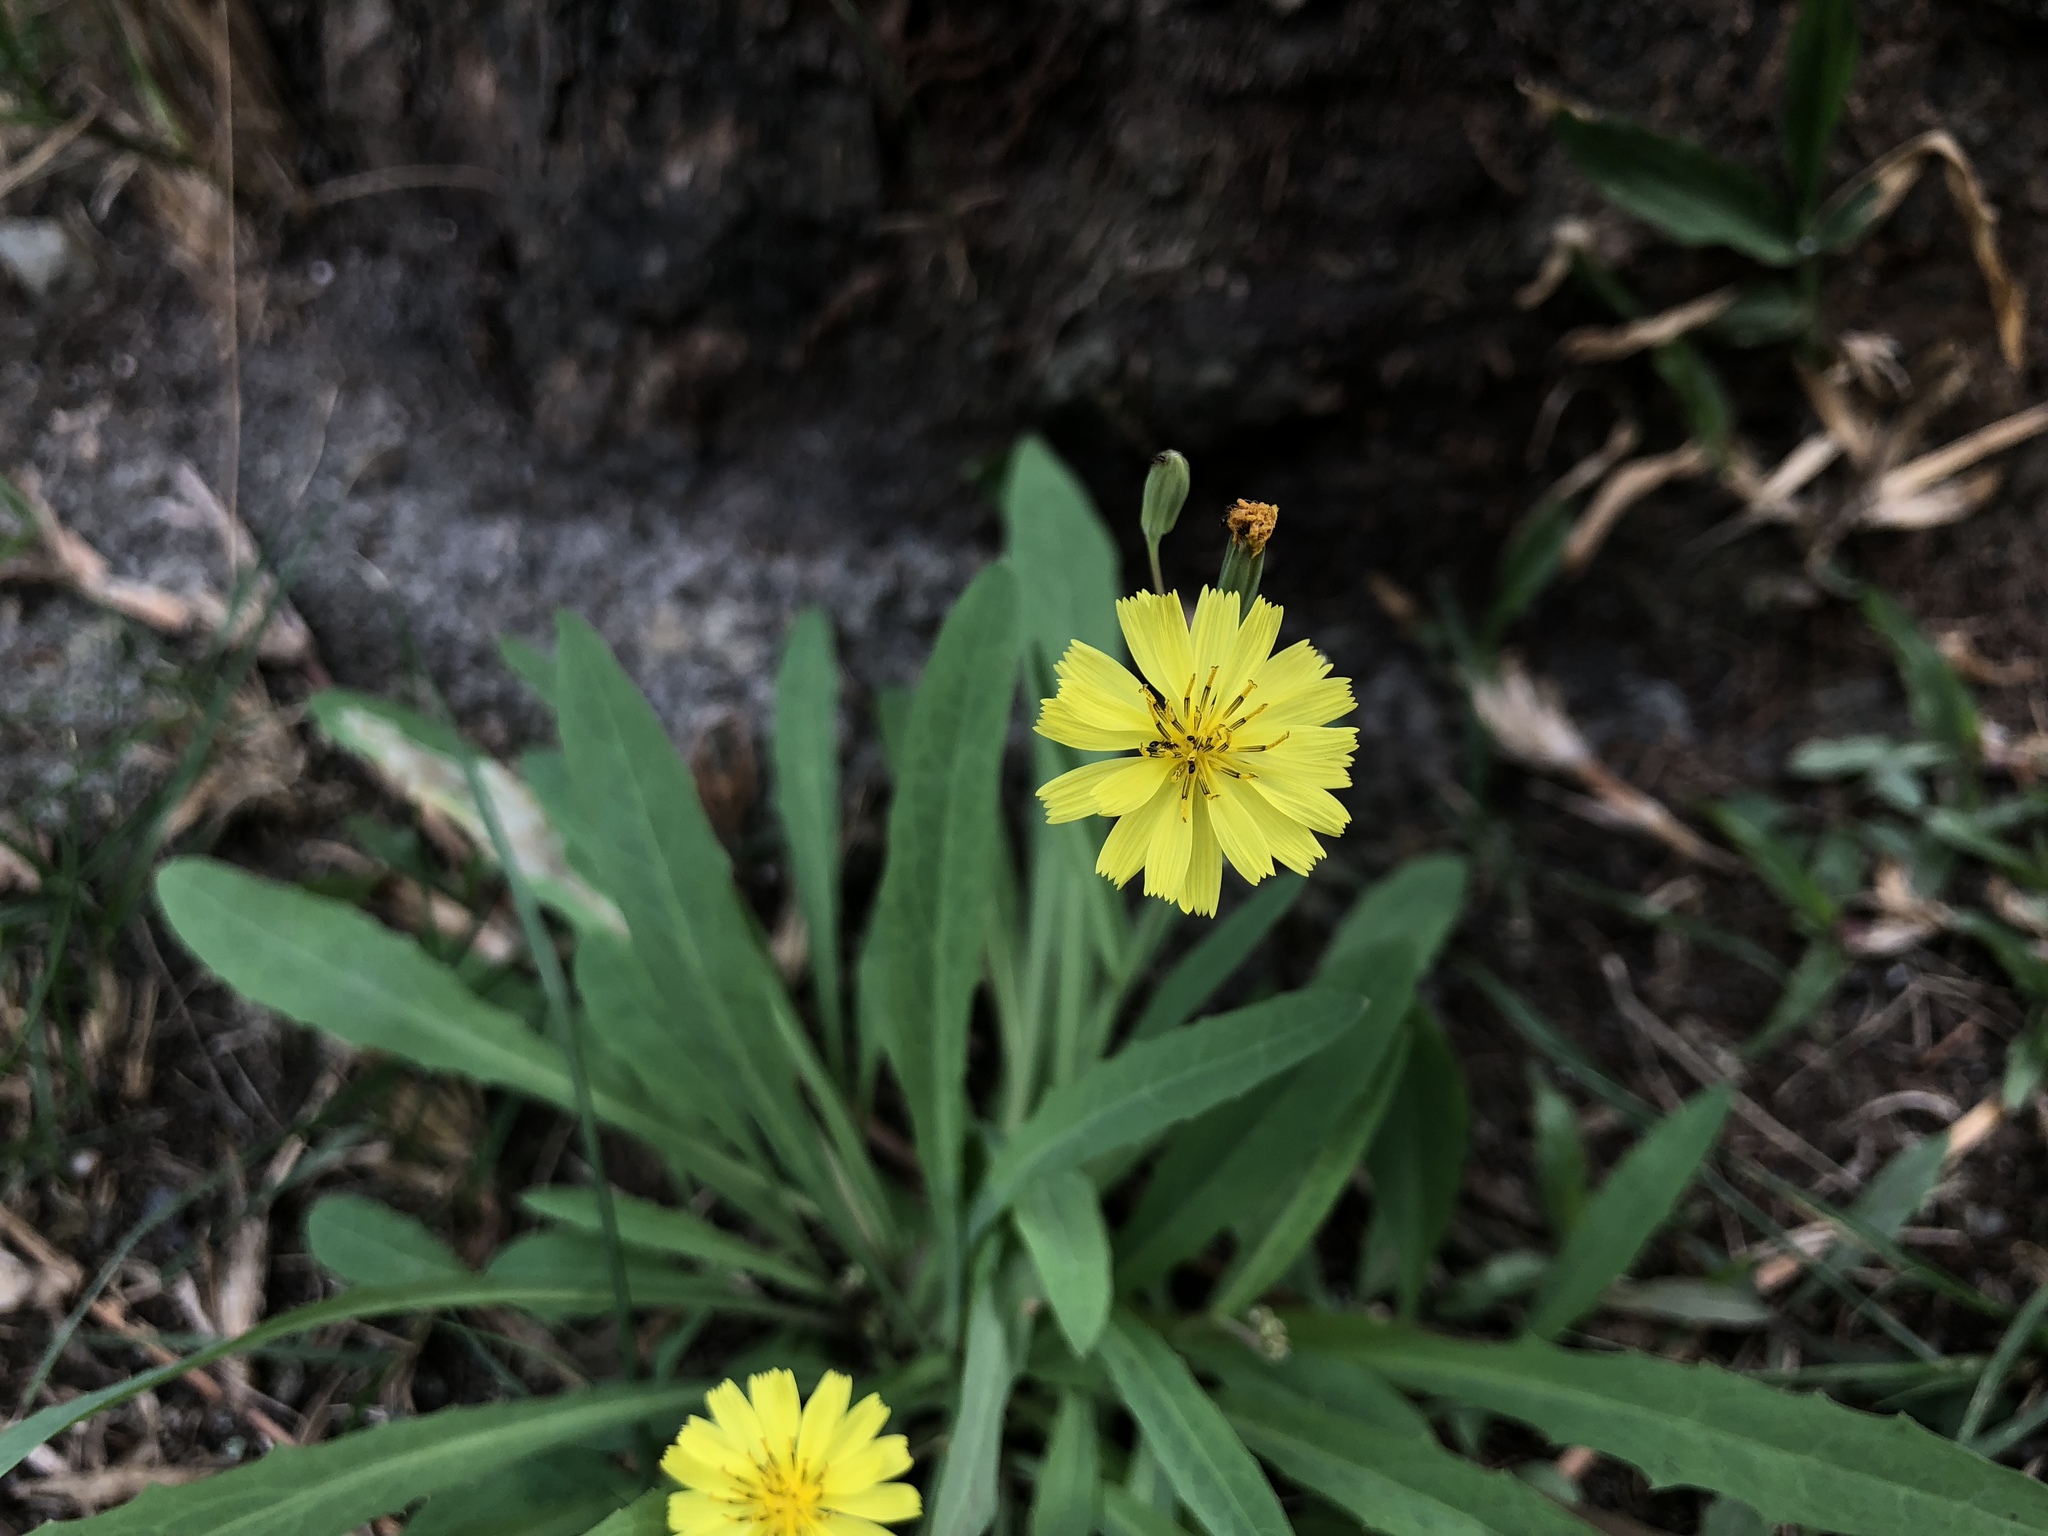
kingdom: Plantae
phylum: Tracheophyta
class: Magnoliopsida
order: Asterales
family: Asteraceae
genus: Ixeris
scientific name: Ixeris chinensis
